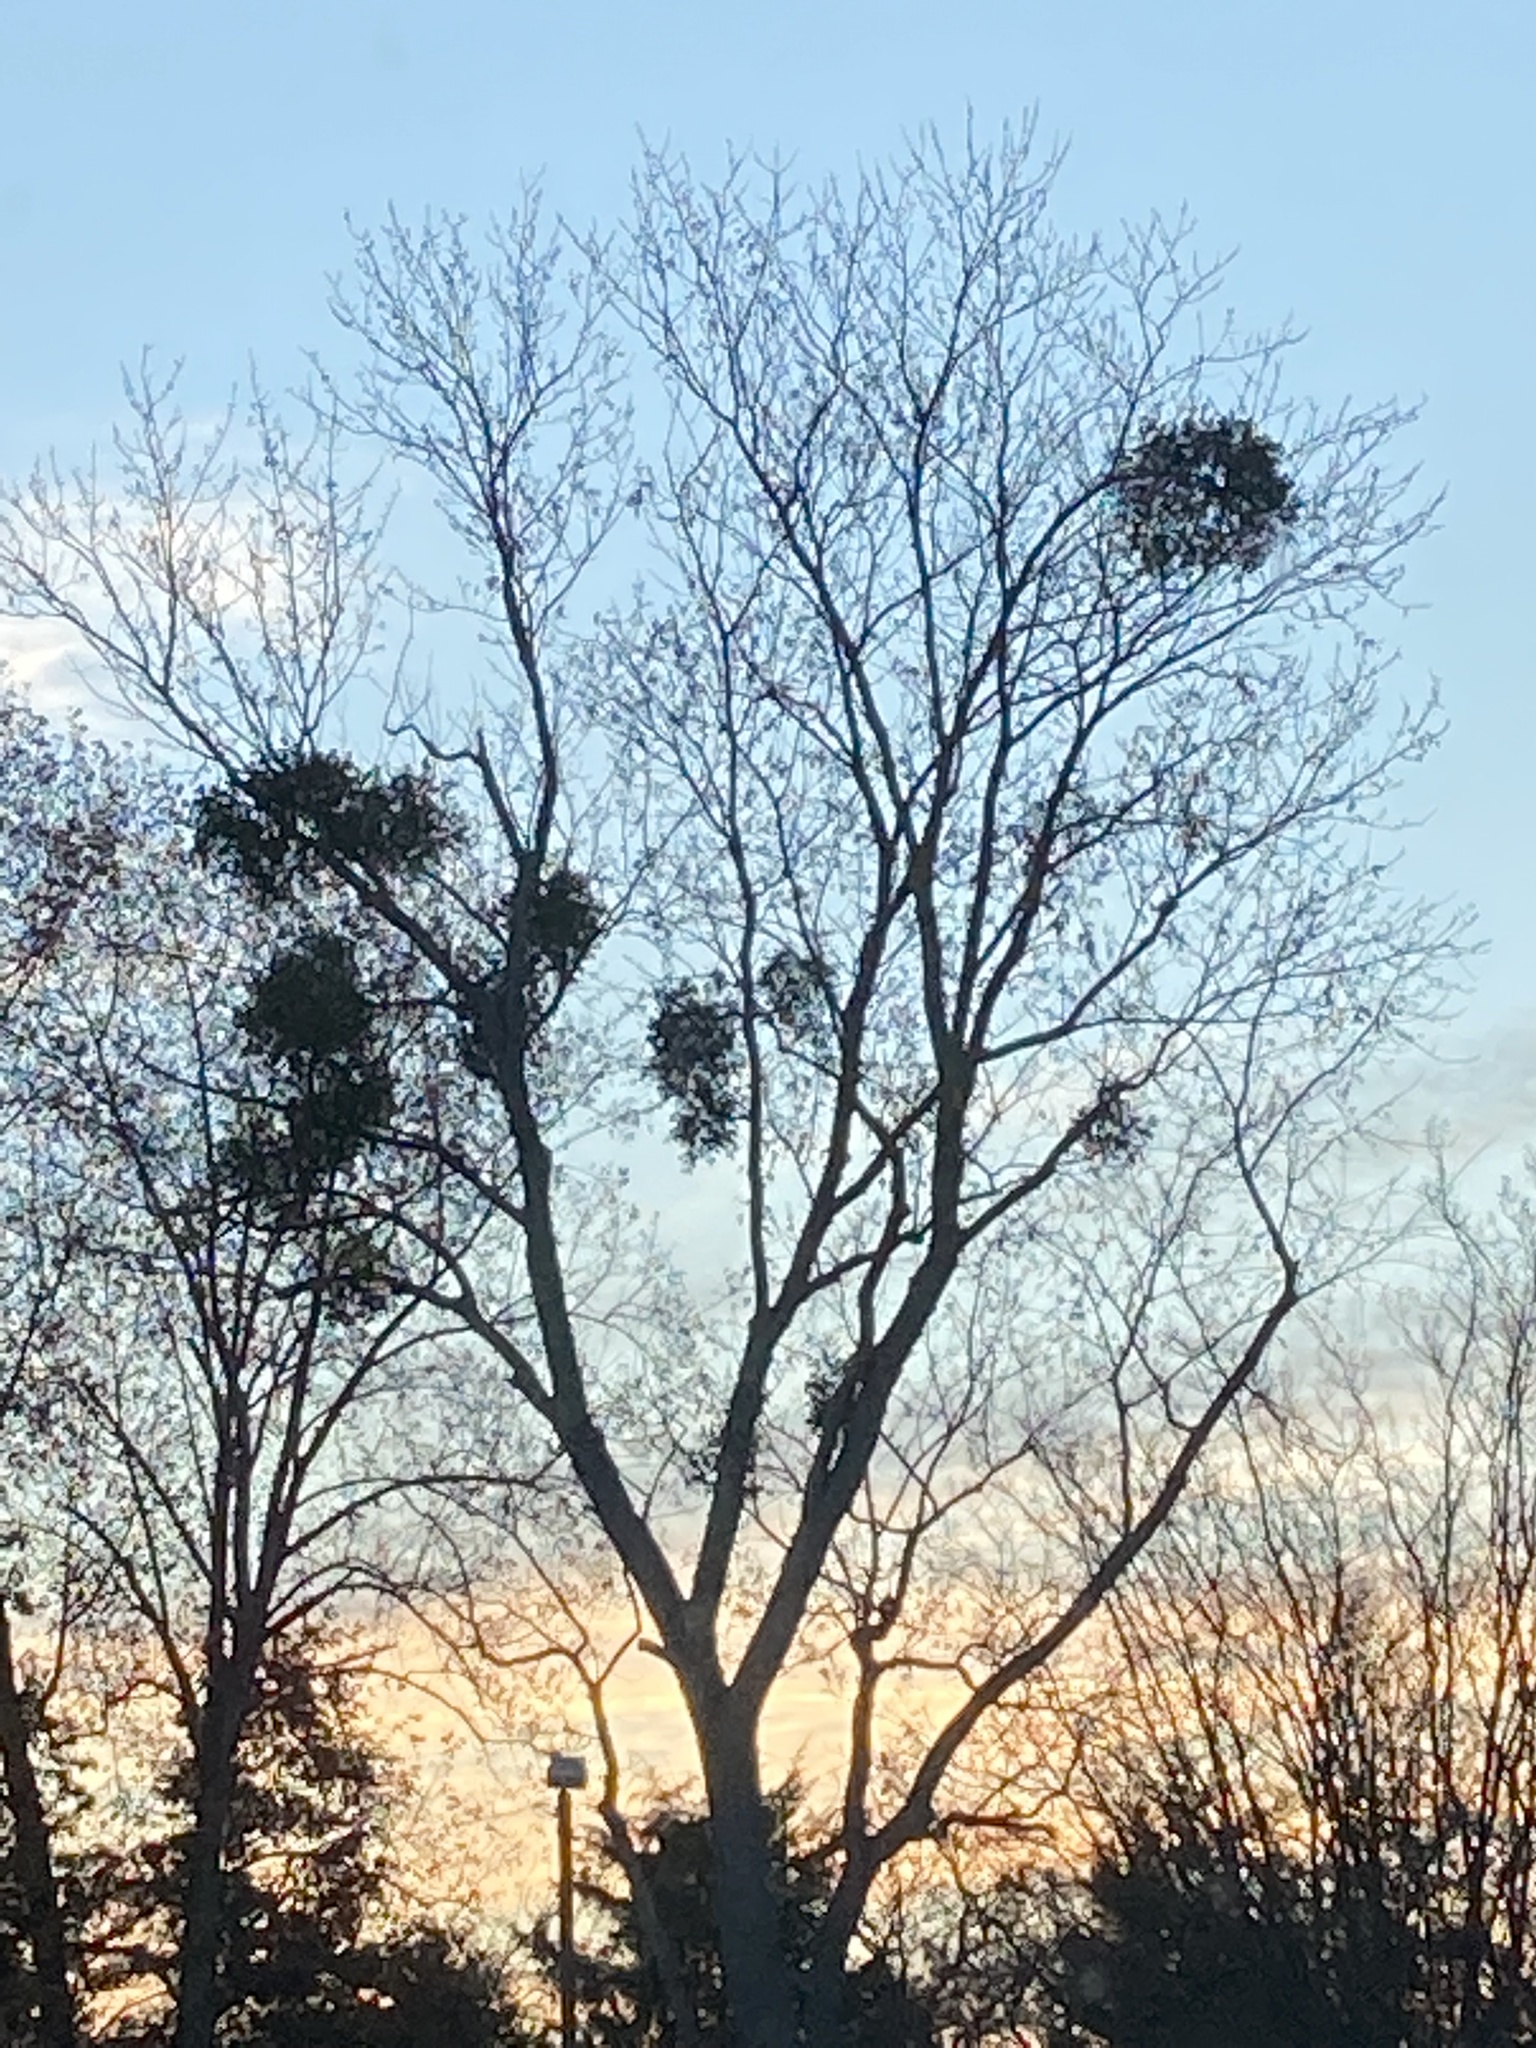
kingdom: Plantae
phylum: Tracheophyta
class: Magnoliopsida
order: Santalales
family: Viscaceae
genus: Phoradendron
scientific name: Phoradendron leucarpum
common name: Pacific mistletoe
